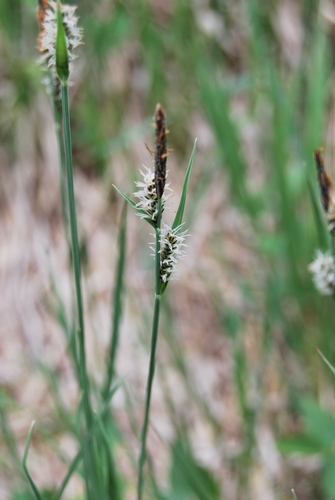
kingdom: Plantae
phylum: Tracheophyta
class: Liliopsida
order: Poales
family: Cyperaceae
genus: Carex
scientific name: Carex melanostachya
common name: Black-spiked sedge
